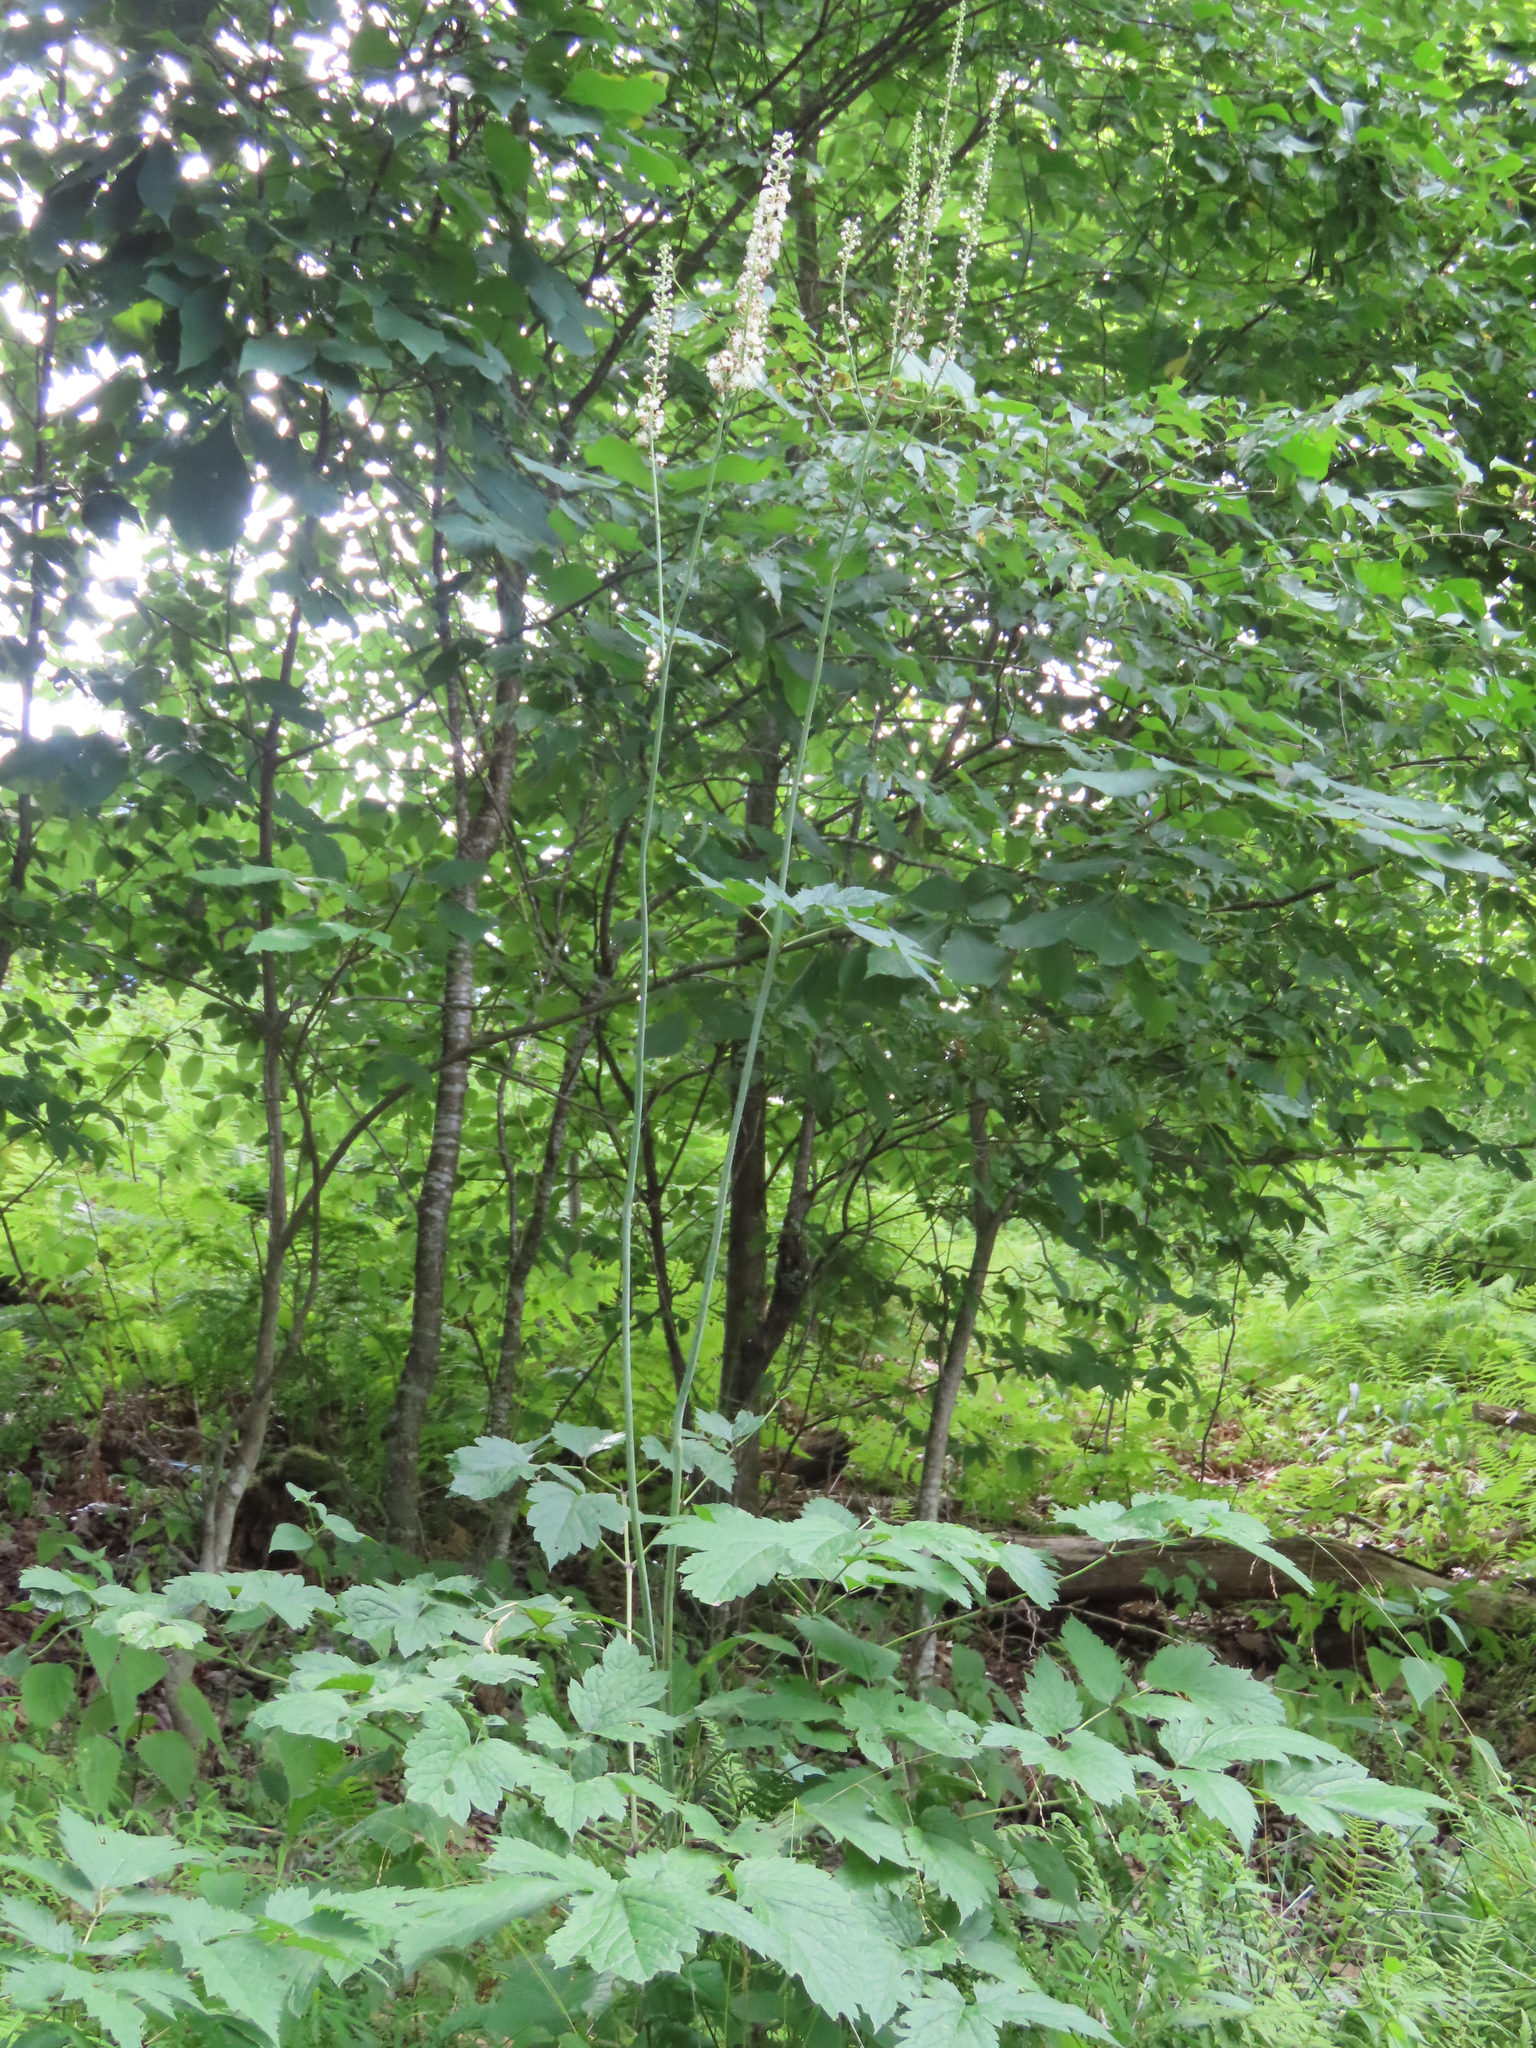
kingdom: Plantae
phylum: Tracheophyta
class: Magnoliopsida
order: Ranunculales
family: Ranunculaceae
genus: Actaea
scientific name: Actaea racemosa
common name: Black cohosh
